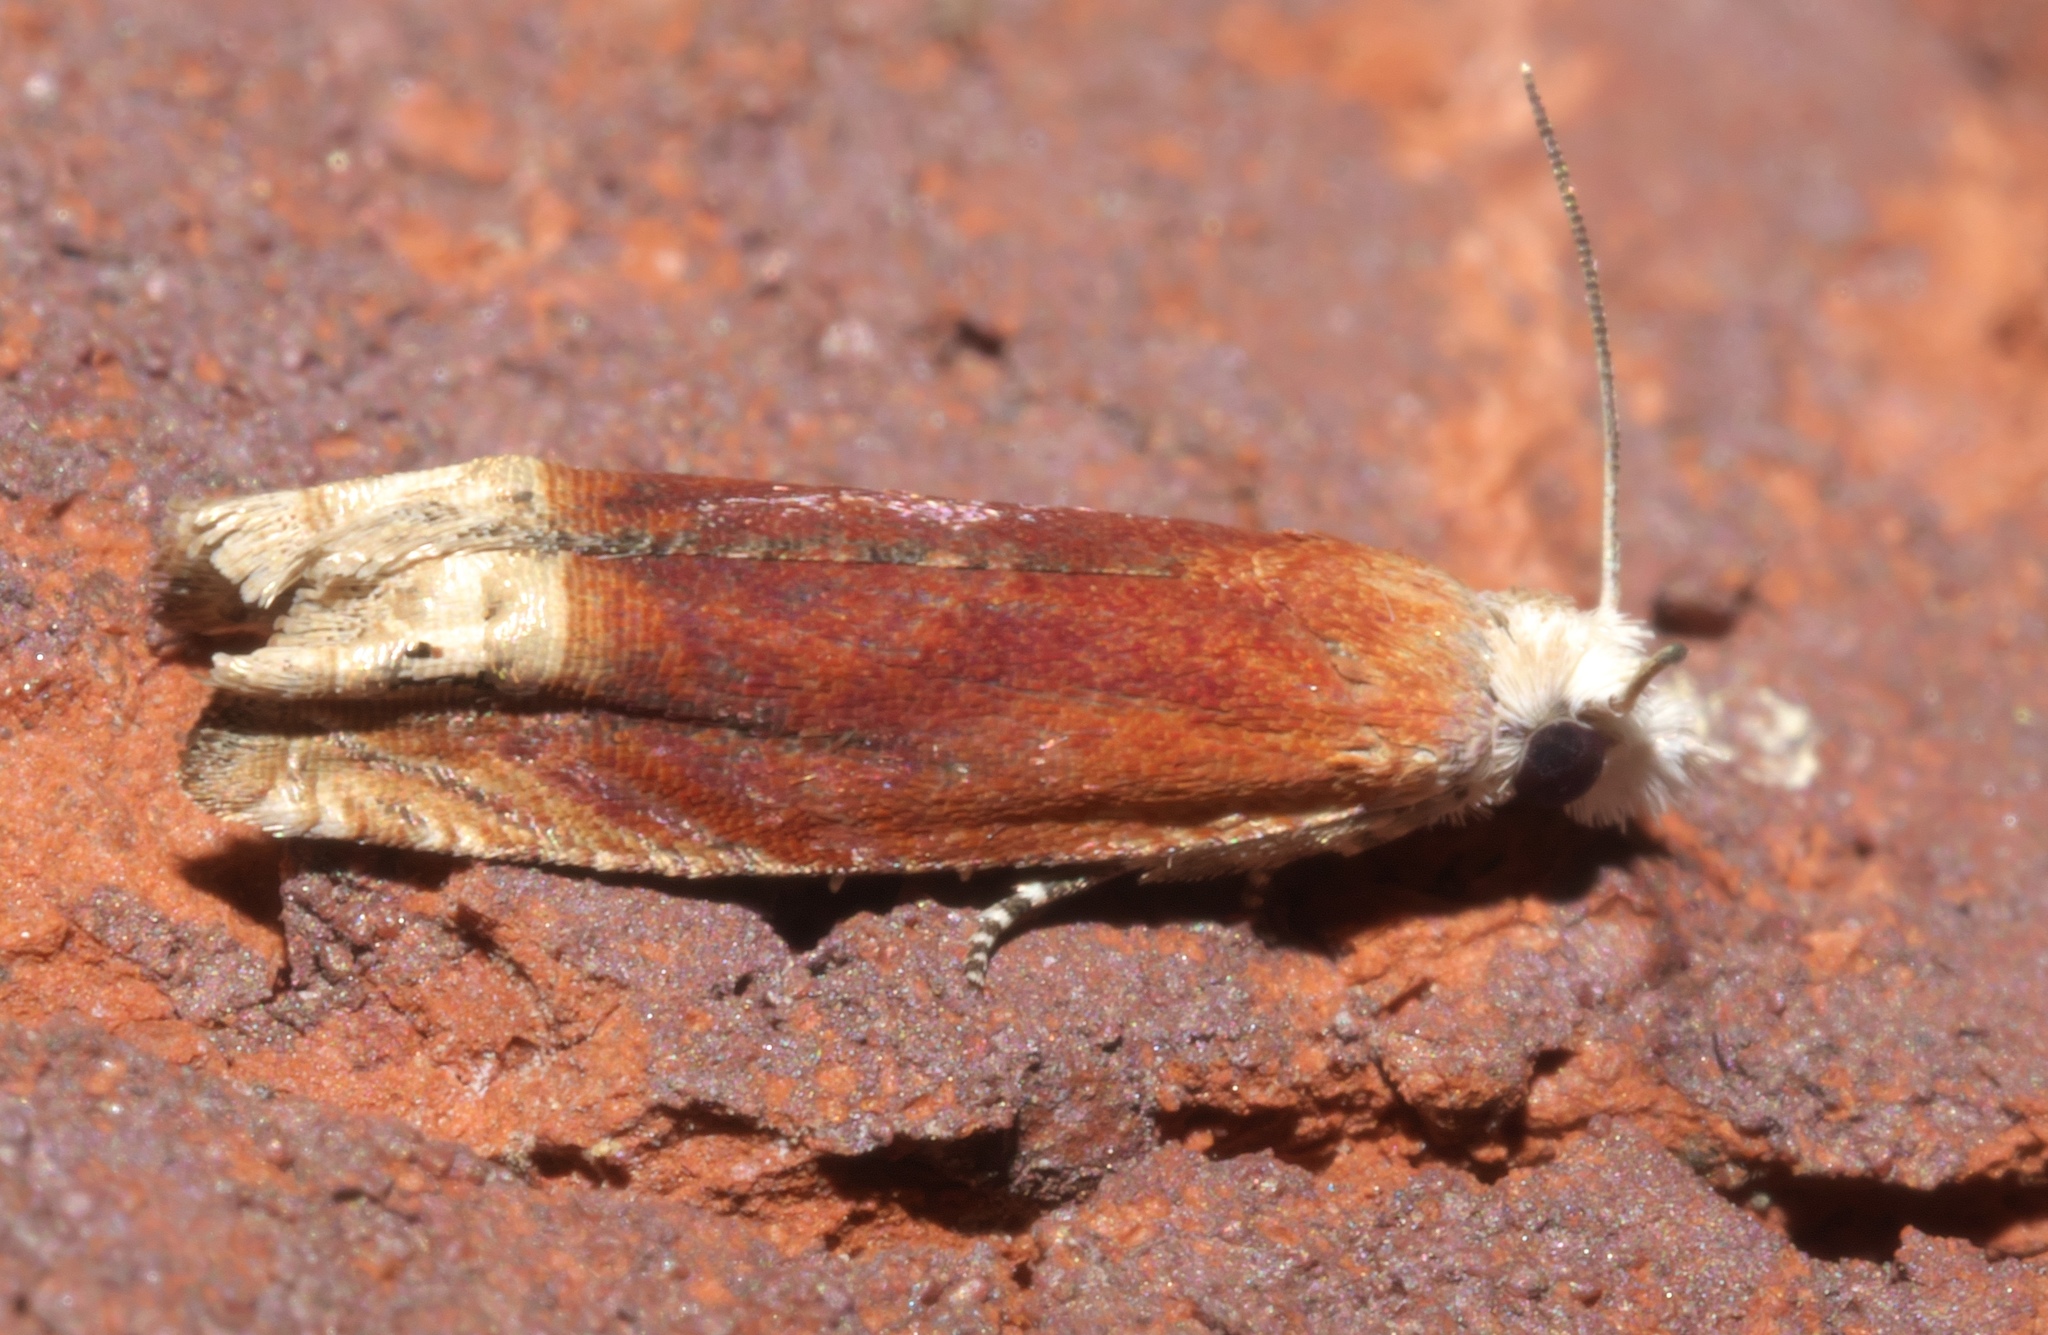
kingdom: Animalia
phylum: Arthropoda
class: Insecta
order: Lepidoptera
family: Tortricidae
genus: Eucosma
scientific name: Eucosma raracana
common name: Reddish eucosma moth
